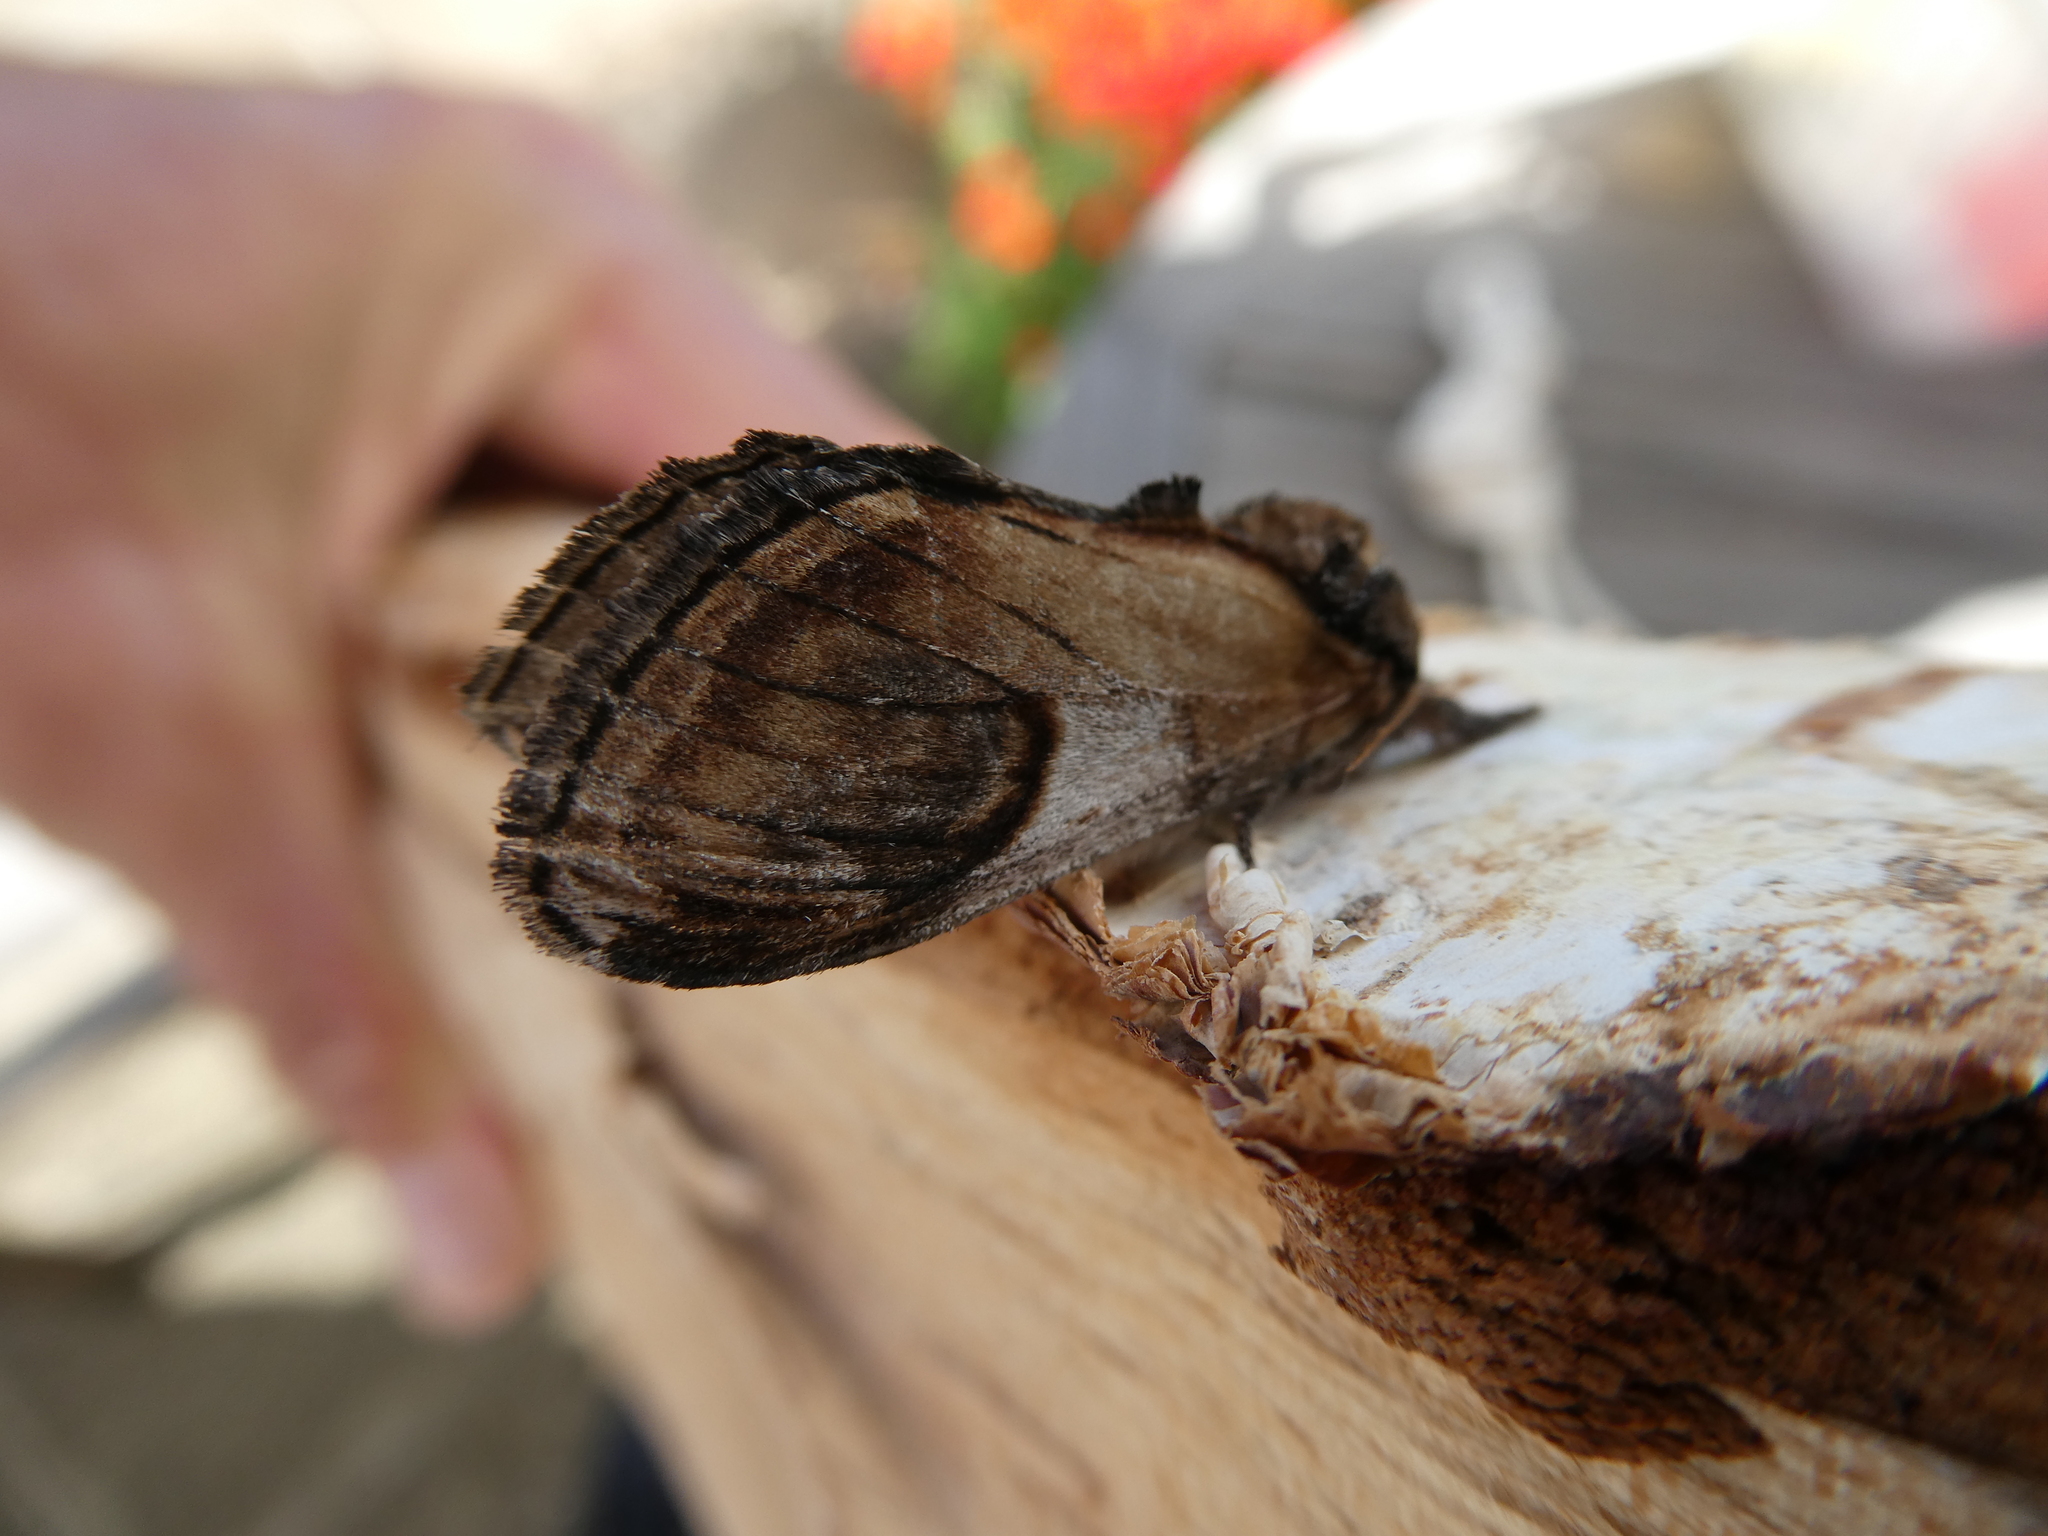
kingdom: Animalia
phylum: Arthropoda
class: Insecta
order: Lepidoptera
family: Notodontidae
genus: Notodonta
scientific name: Notodonta ziczac
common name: Pebble prominent
